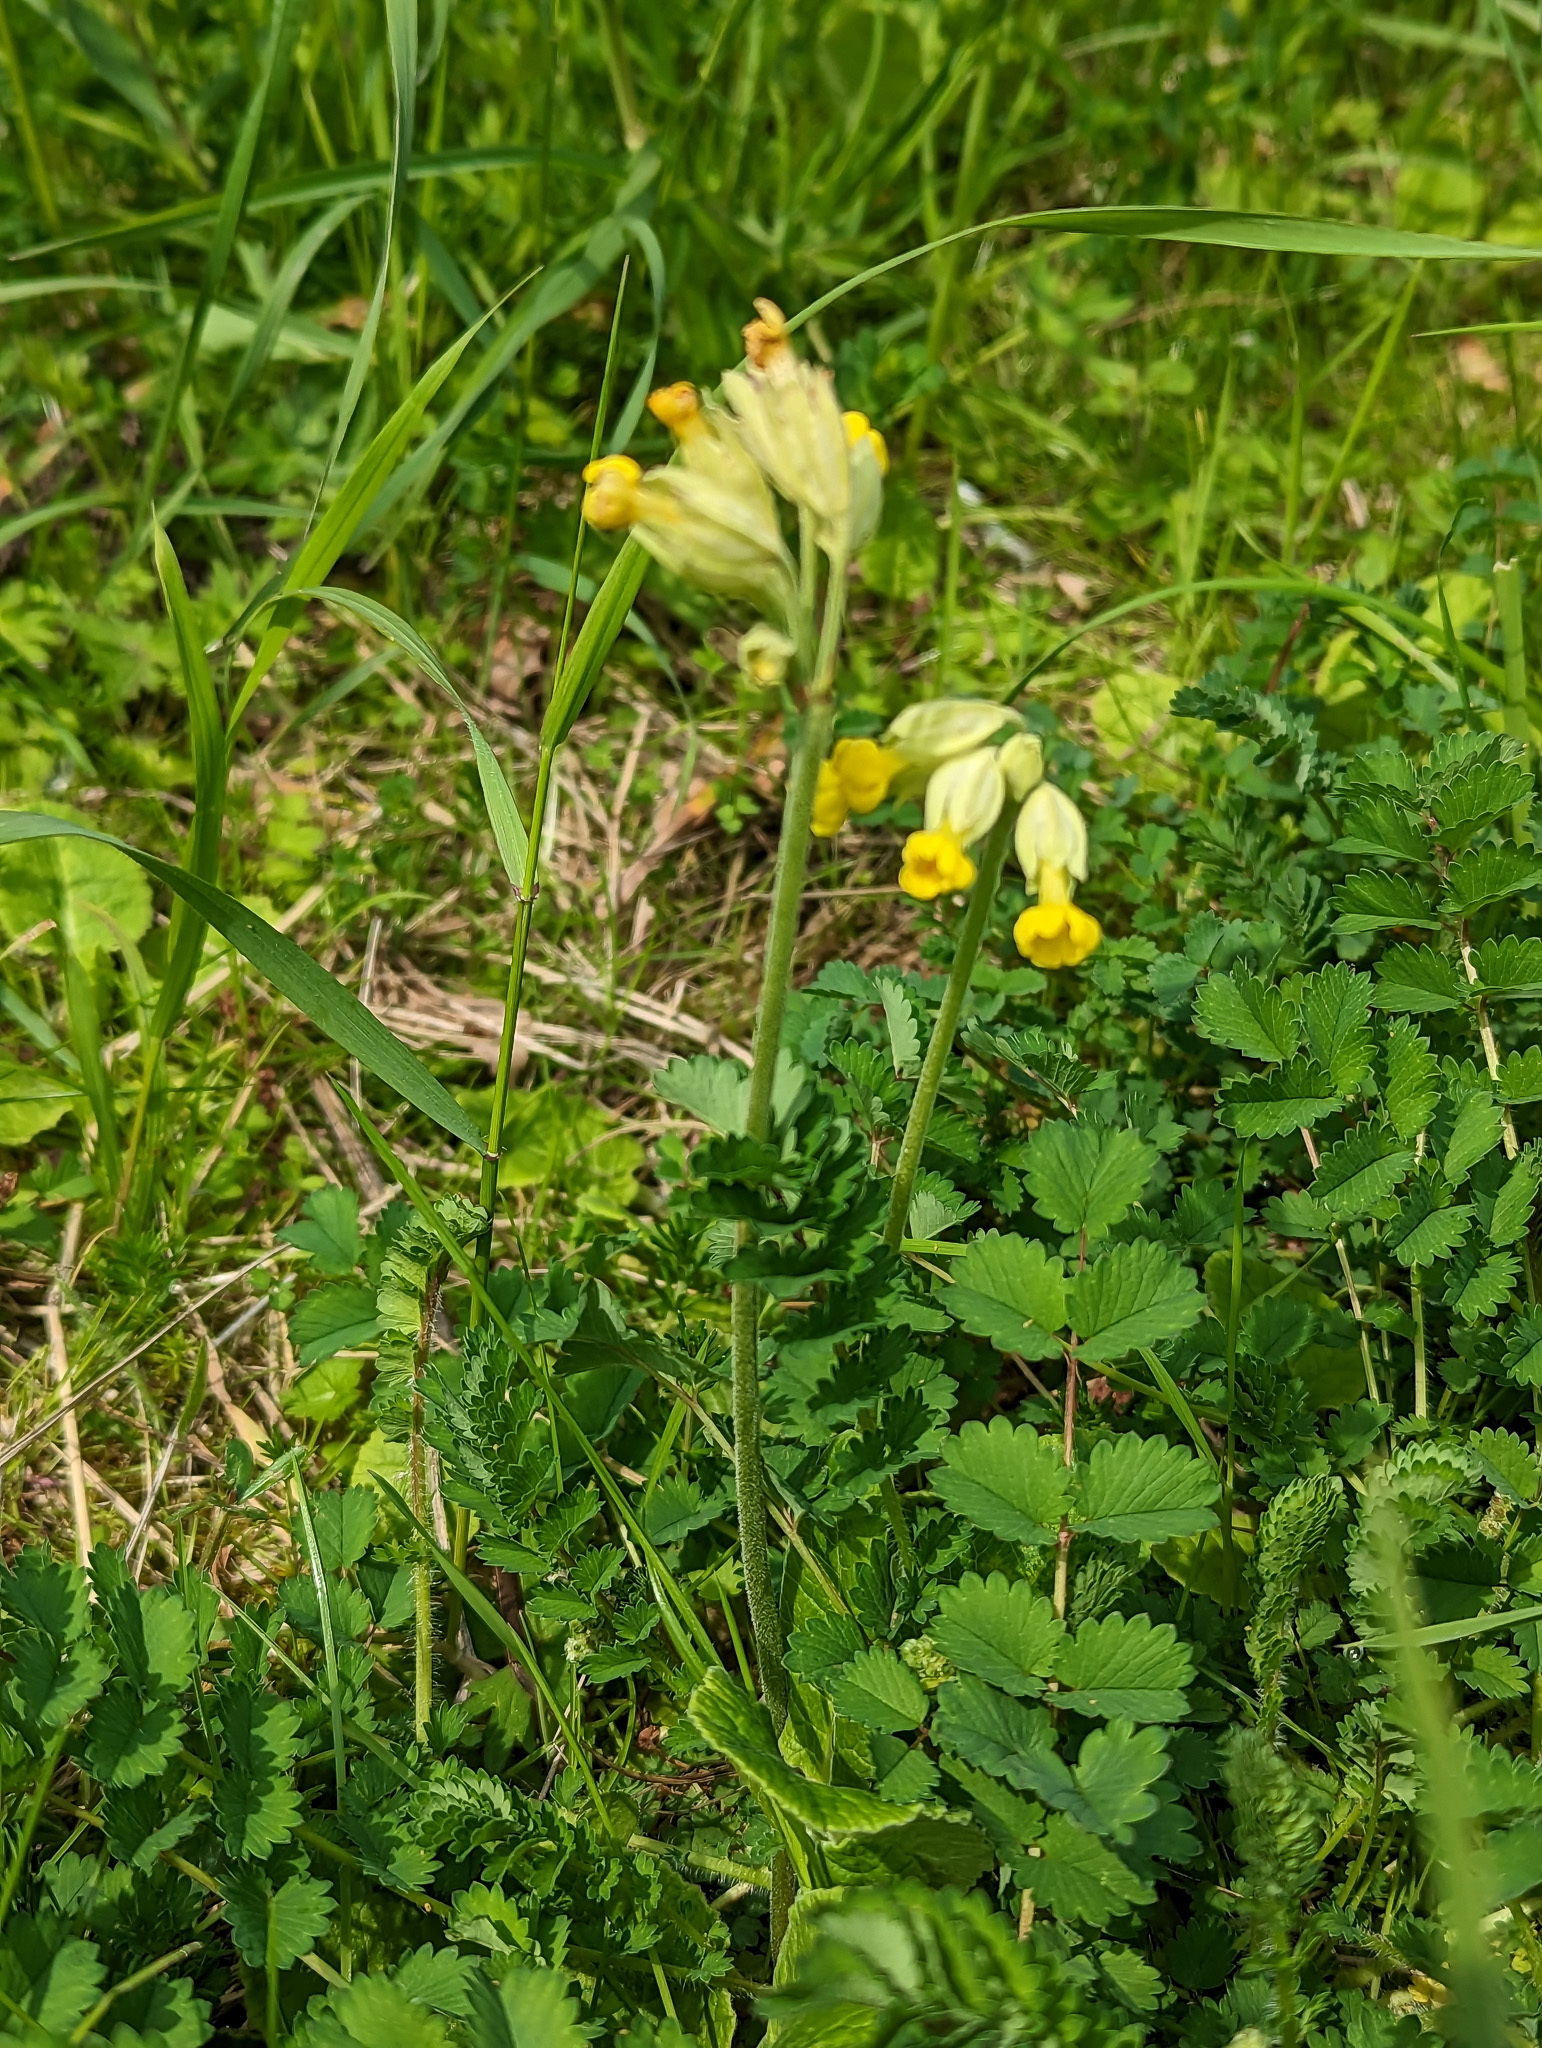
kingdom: Plantae
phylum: Tracheophyta
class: Magnoliopsida
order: Ericales
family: Primulaceae
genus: Primula
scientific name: Primula veris
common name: Cowslip
